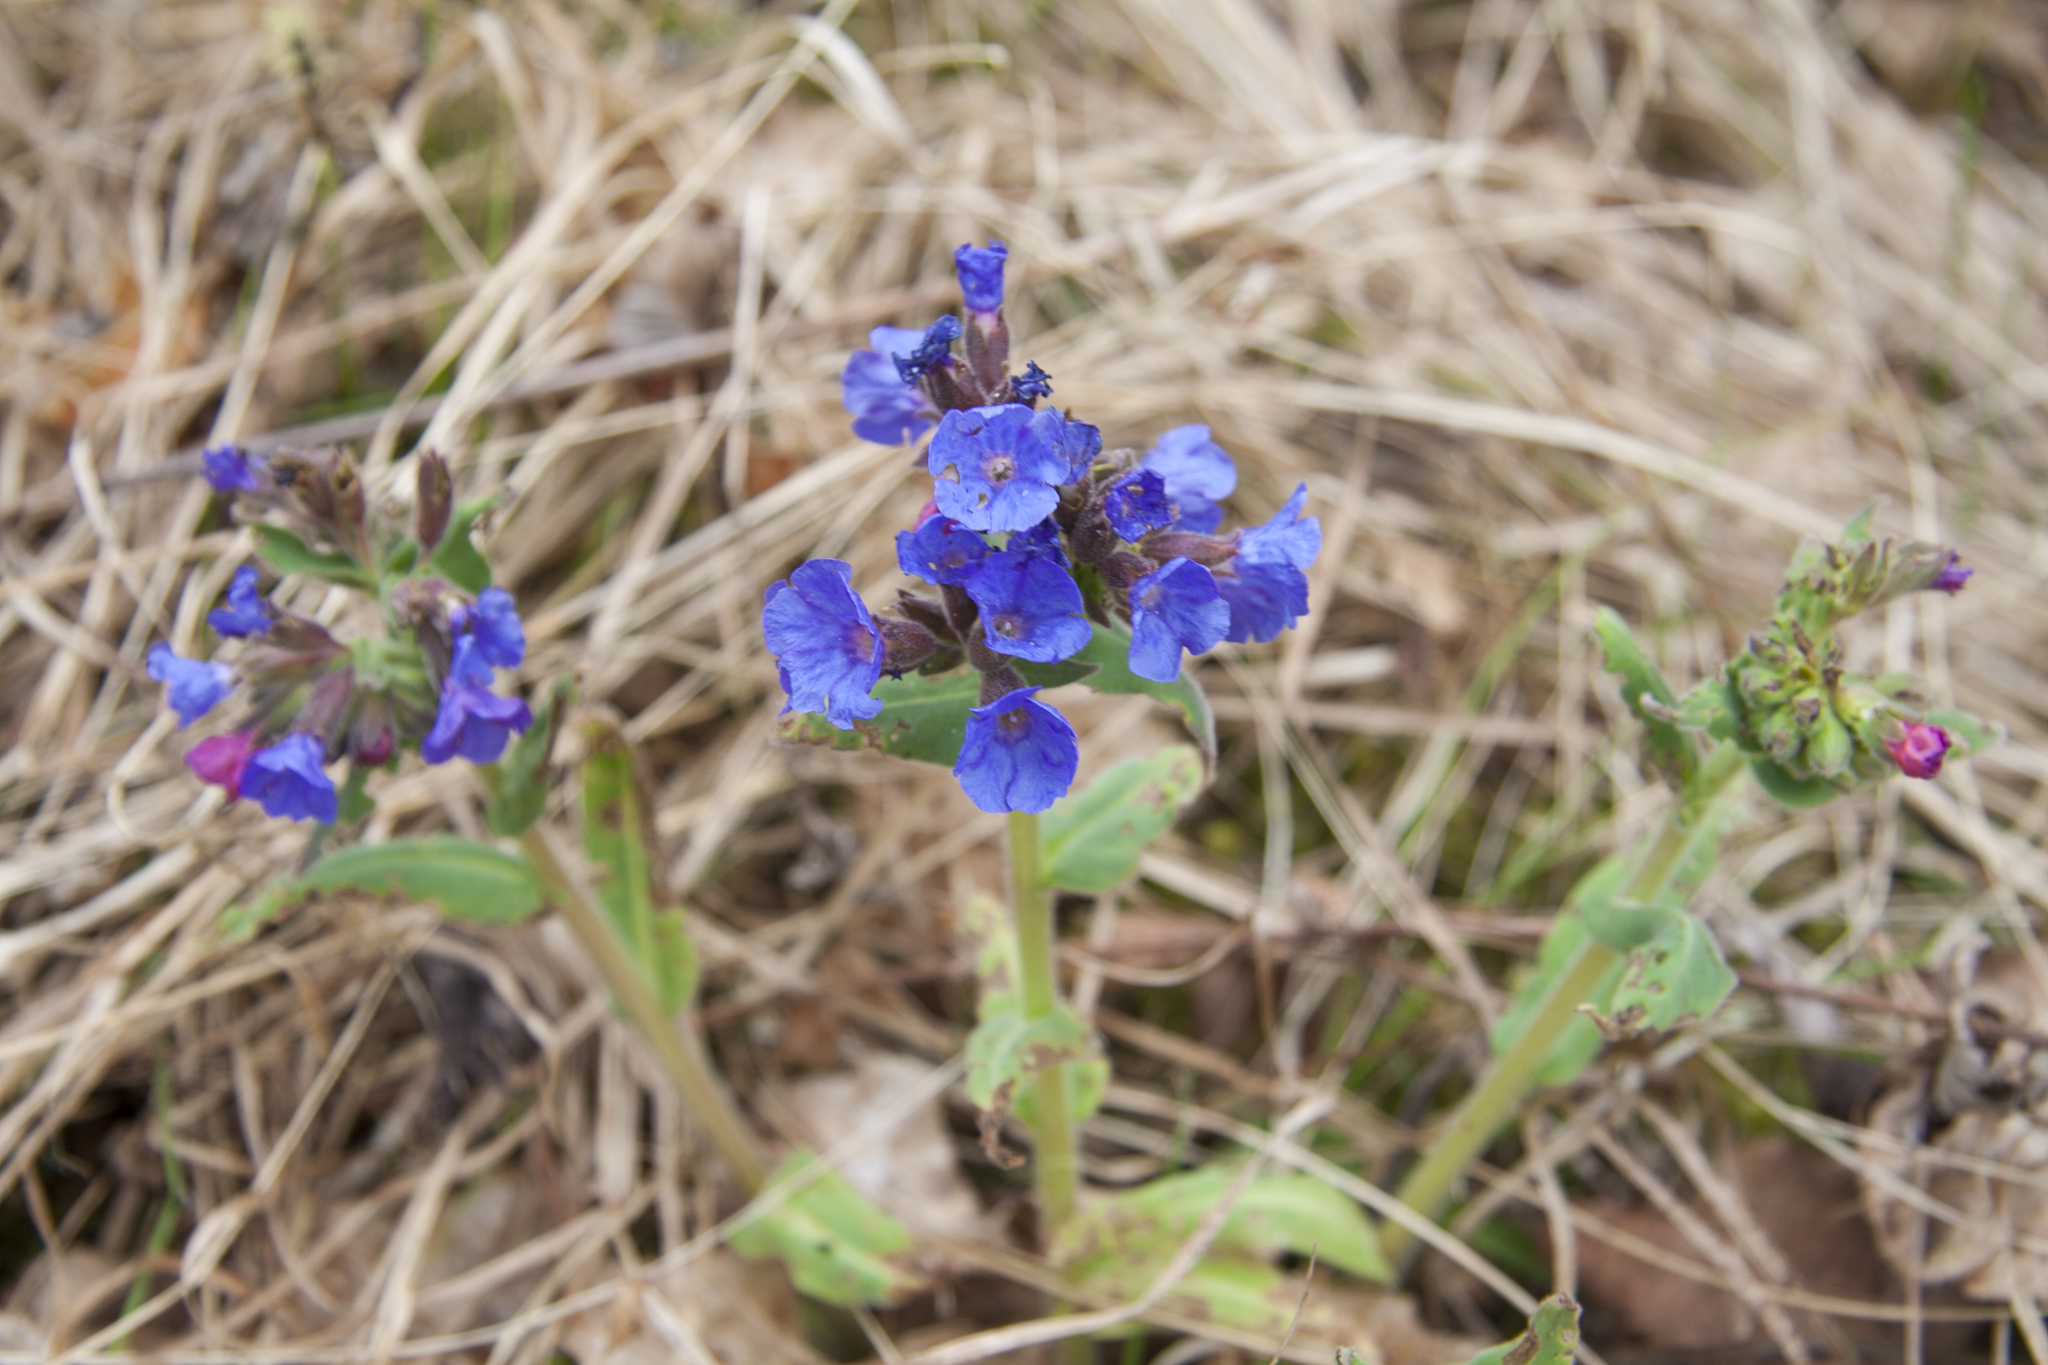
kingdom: Plantae
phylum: Tracheophyta
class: Magnoliopsida
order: Boraginales
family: Boraginaceae
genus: Pulmonaria
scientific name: Pulmonaria mollis
